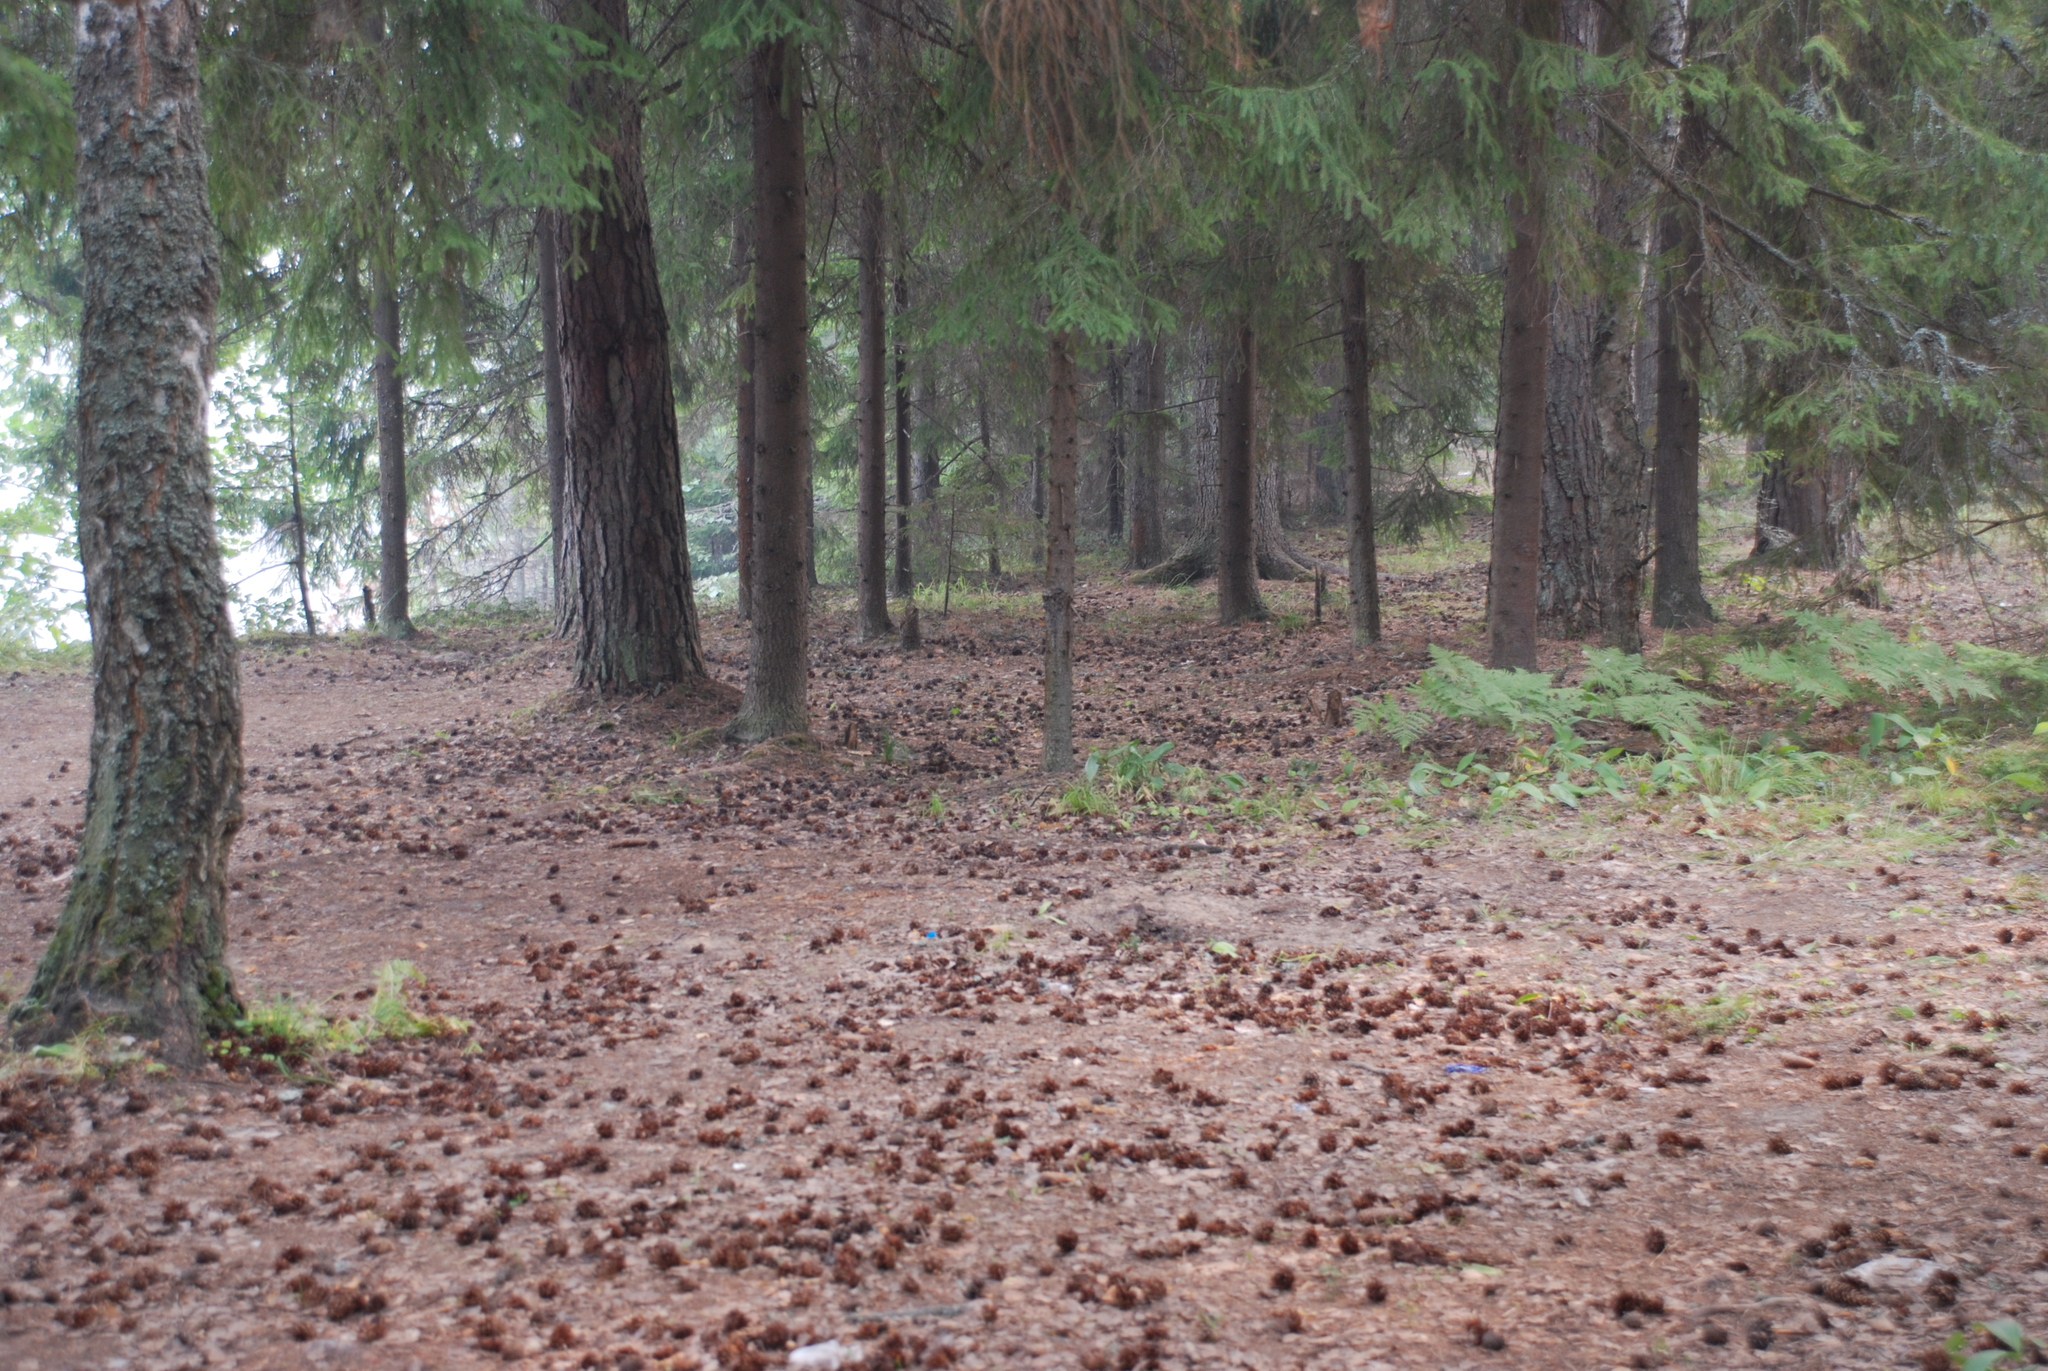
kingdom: Plantae
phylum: Tracheophyta
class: Pinopsida
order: Pinales
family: Pinaceae
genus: Picea
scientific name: Picea abies
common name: Norway spruce
